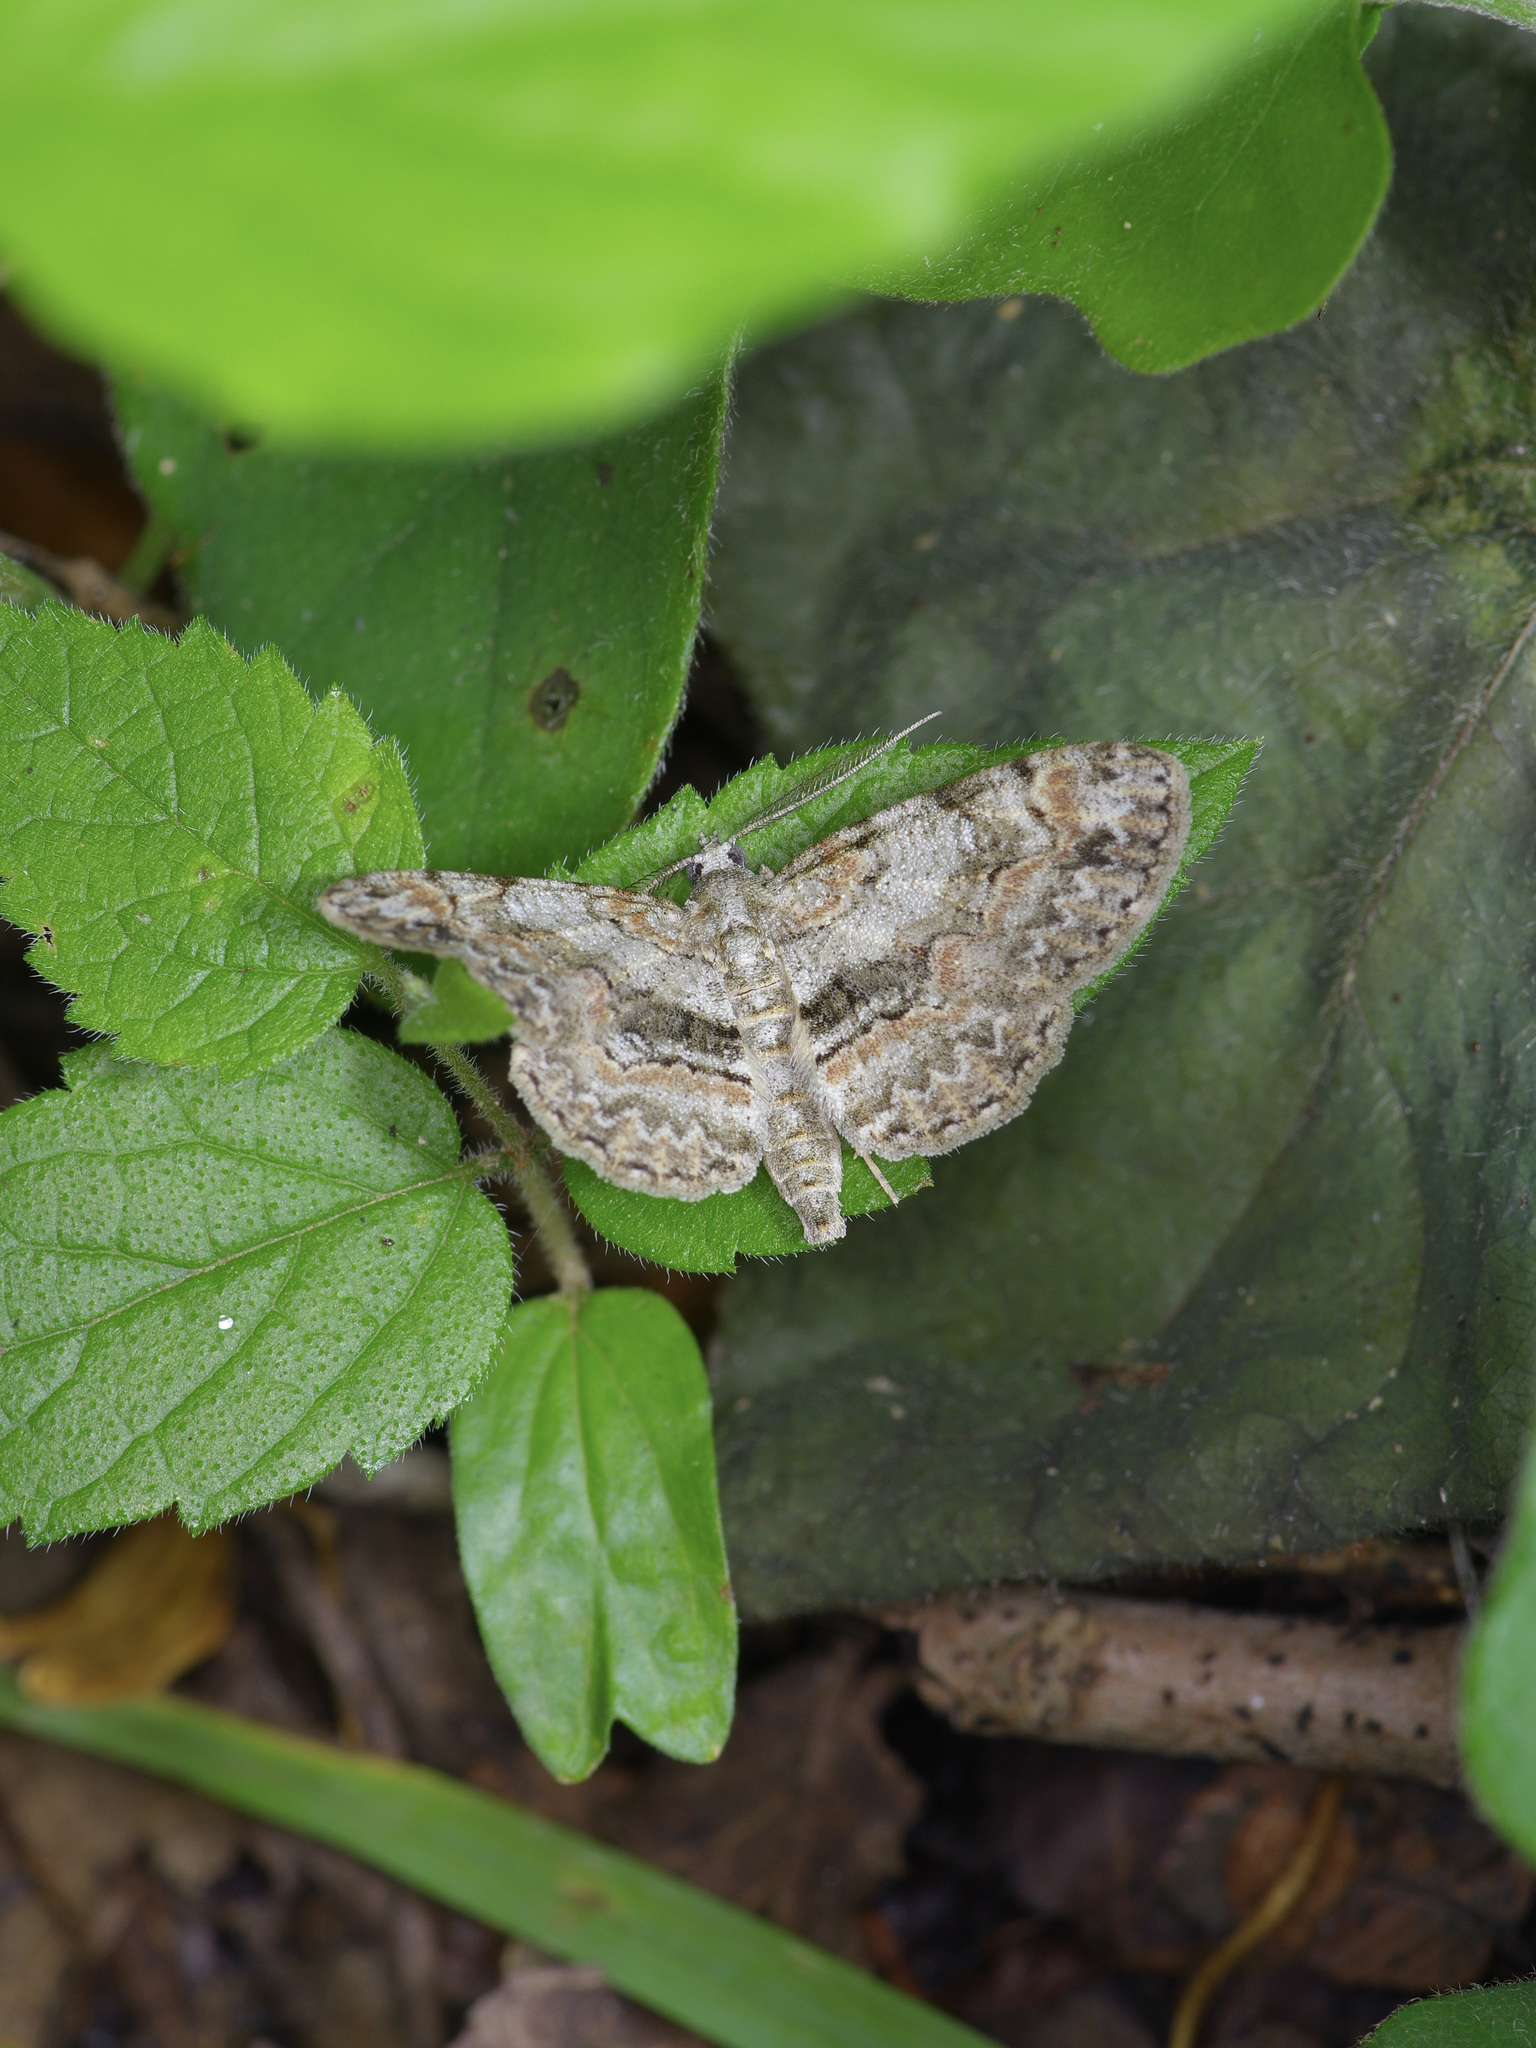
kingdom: Animalia
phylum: Arthropoda
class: Insecta
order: Lepidoptera
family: Geometridae
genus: Iridopsis
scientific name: Iridopsis ephyraria
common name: Pale-winged gray
